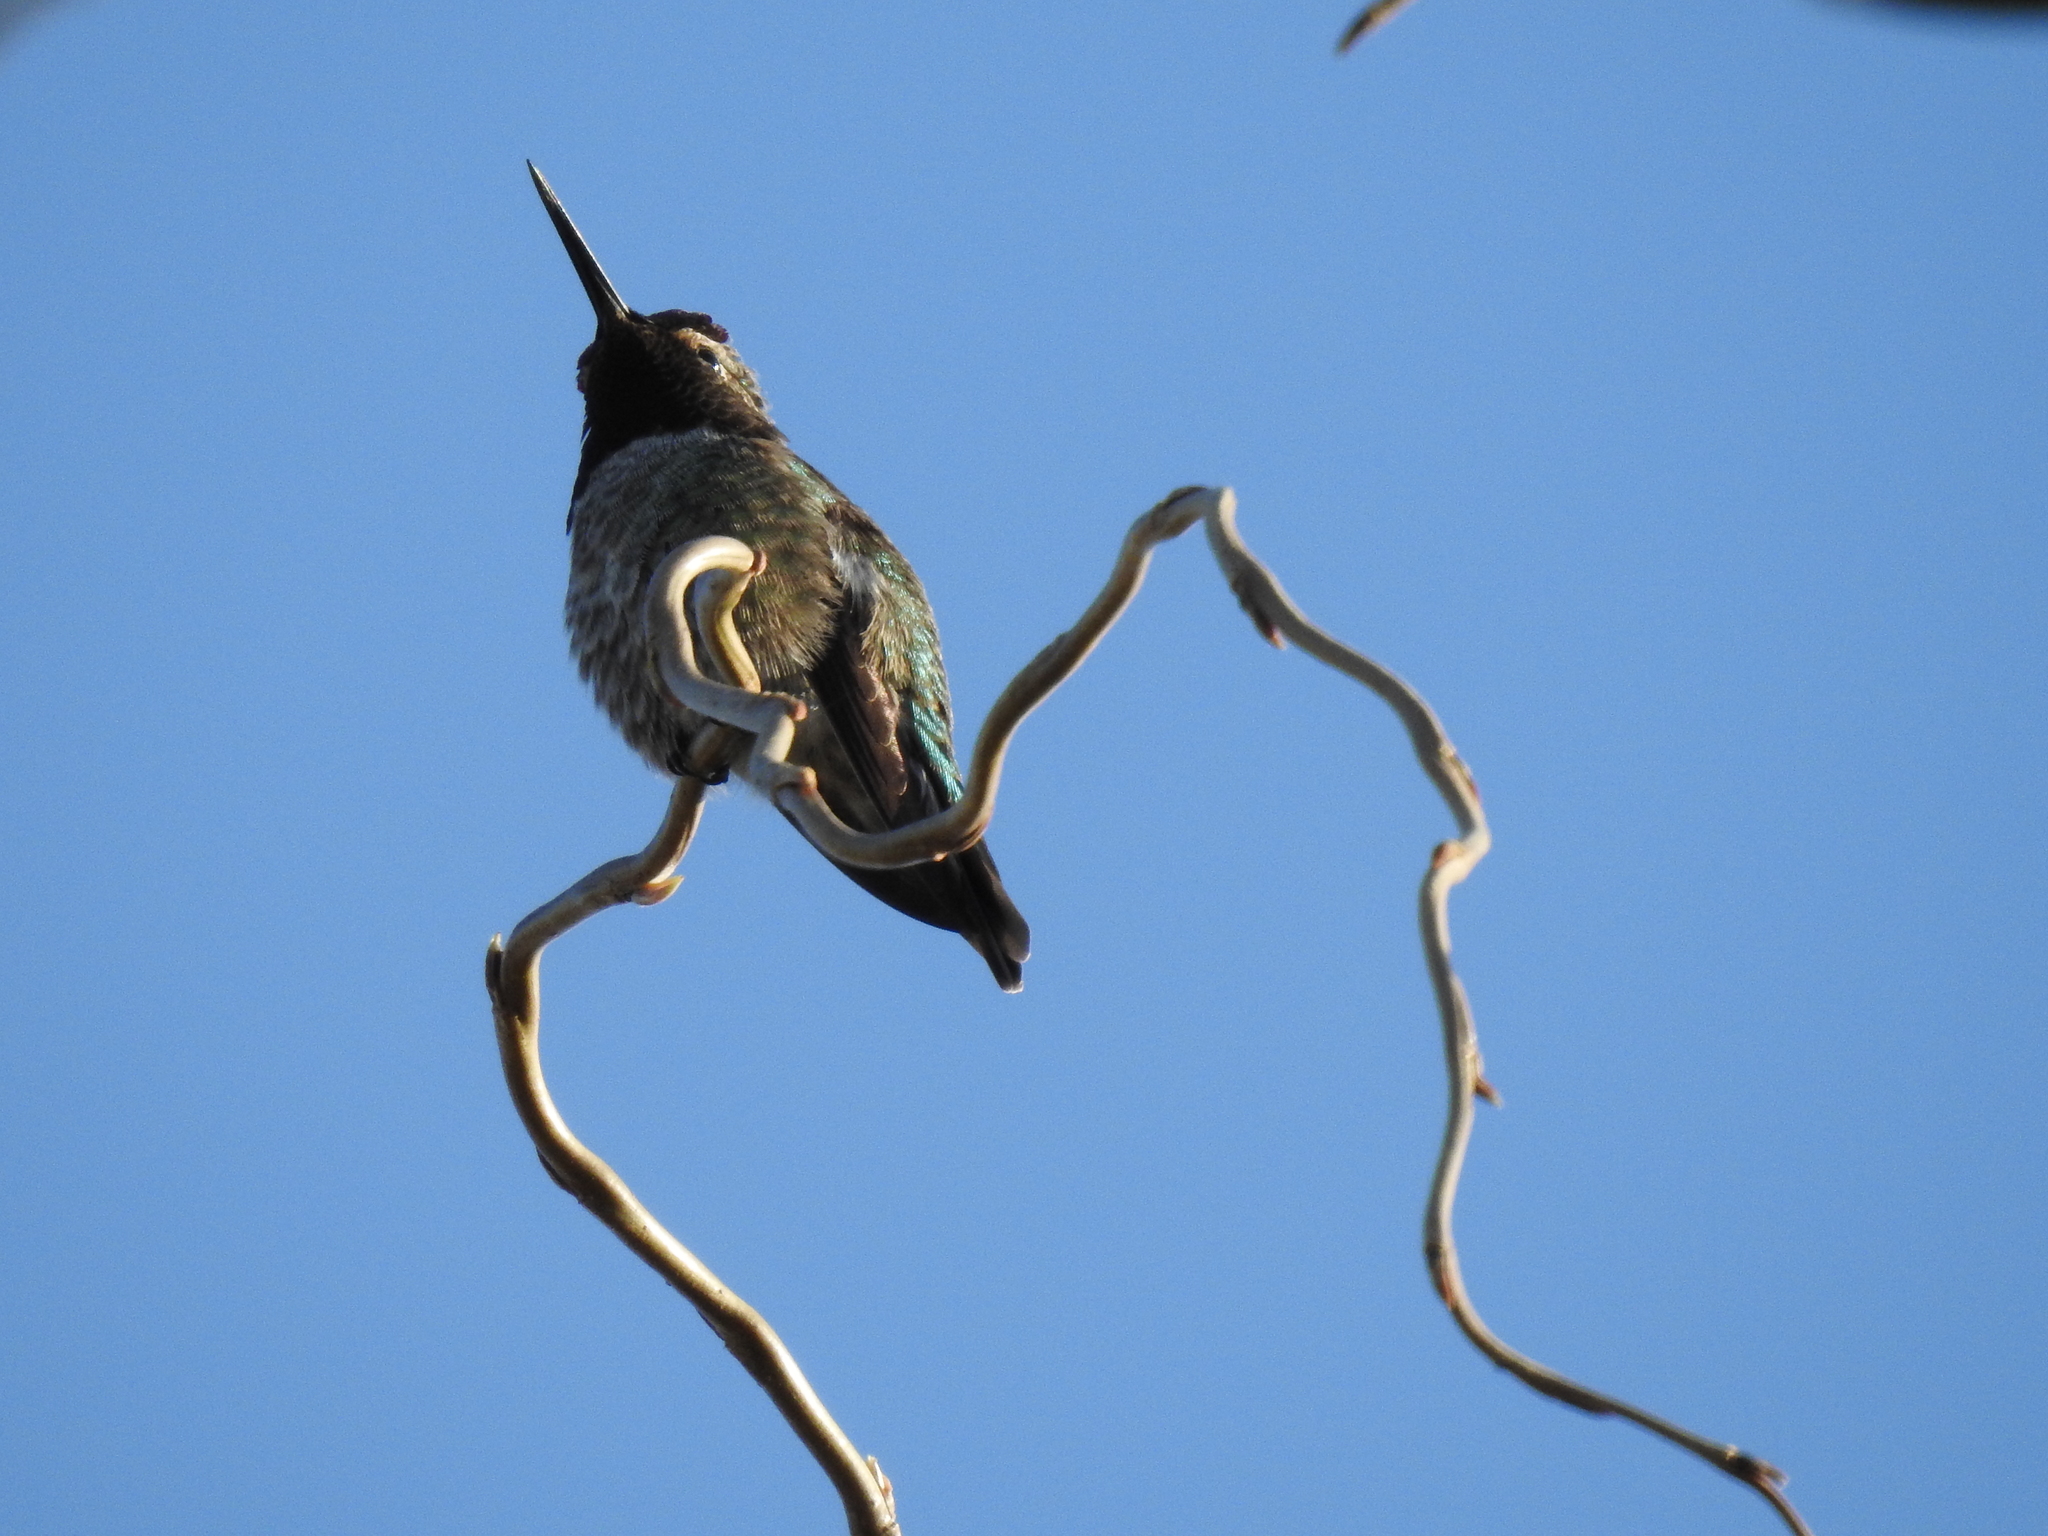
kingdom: Animalia
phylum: Chordata
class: Aves
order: Apodiformes
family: Trochilidae
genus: Calypte
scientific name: Calypte anna
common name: Anna's hummingbird
